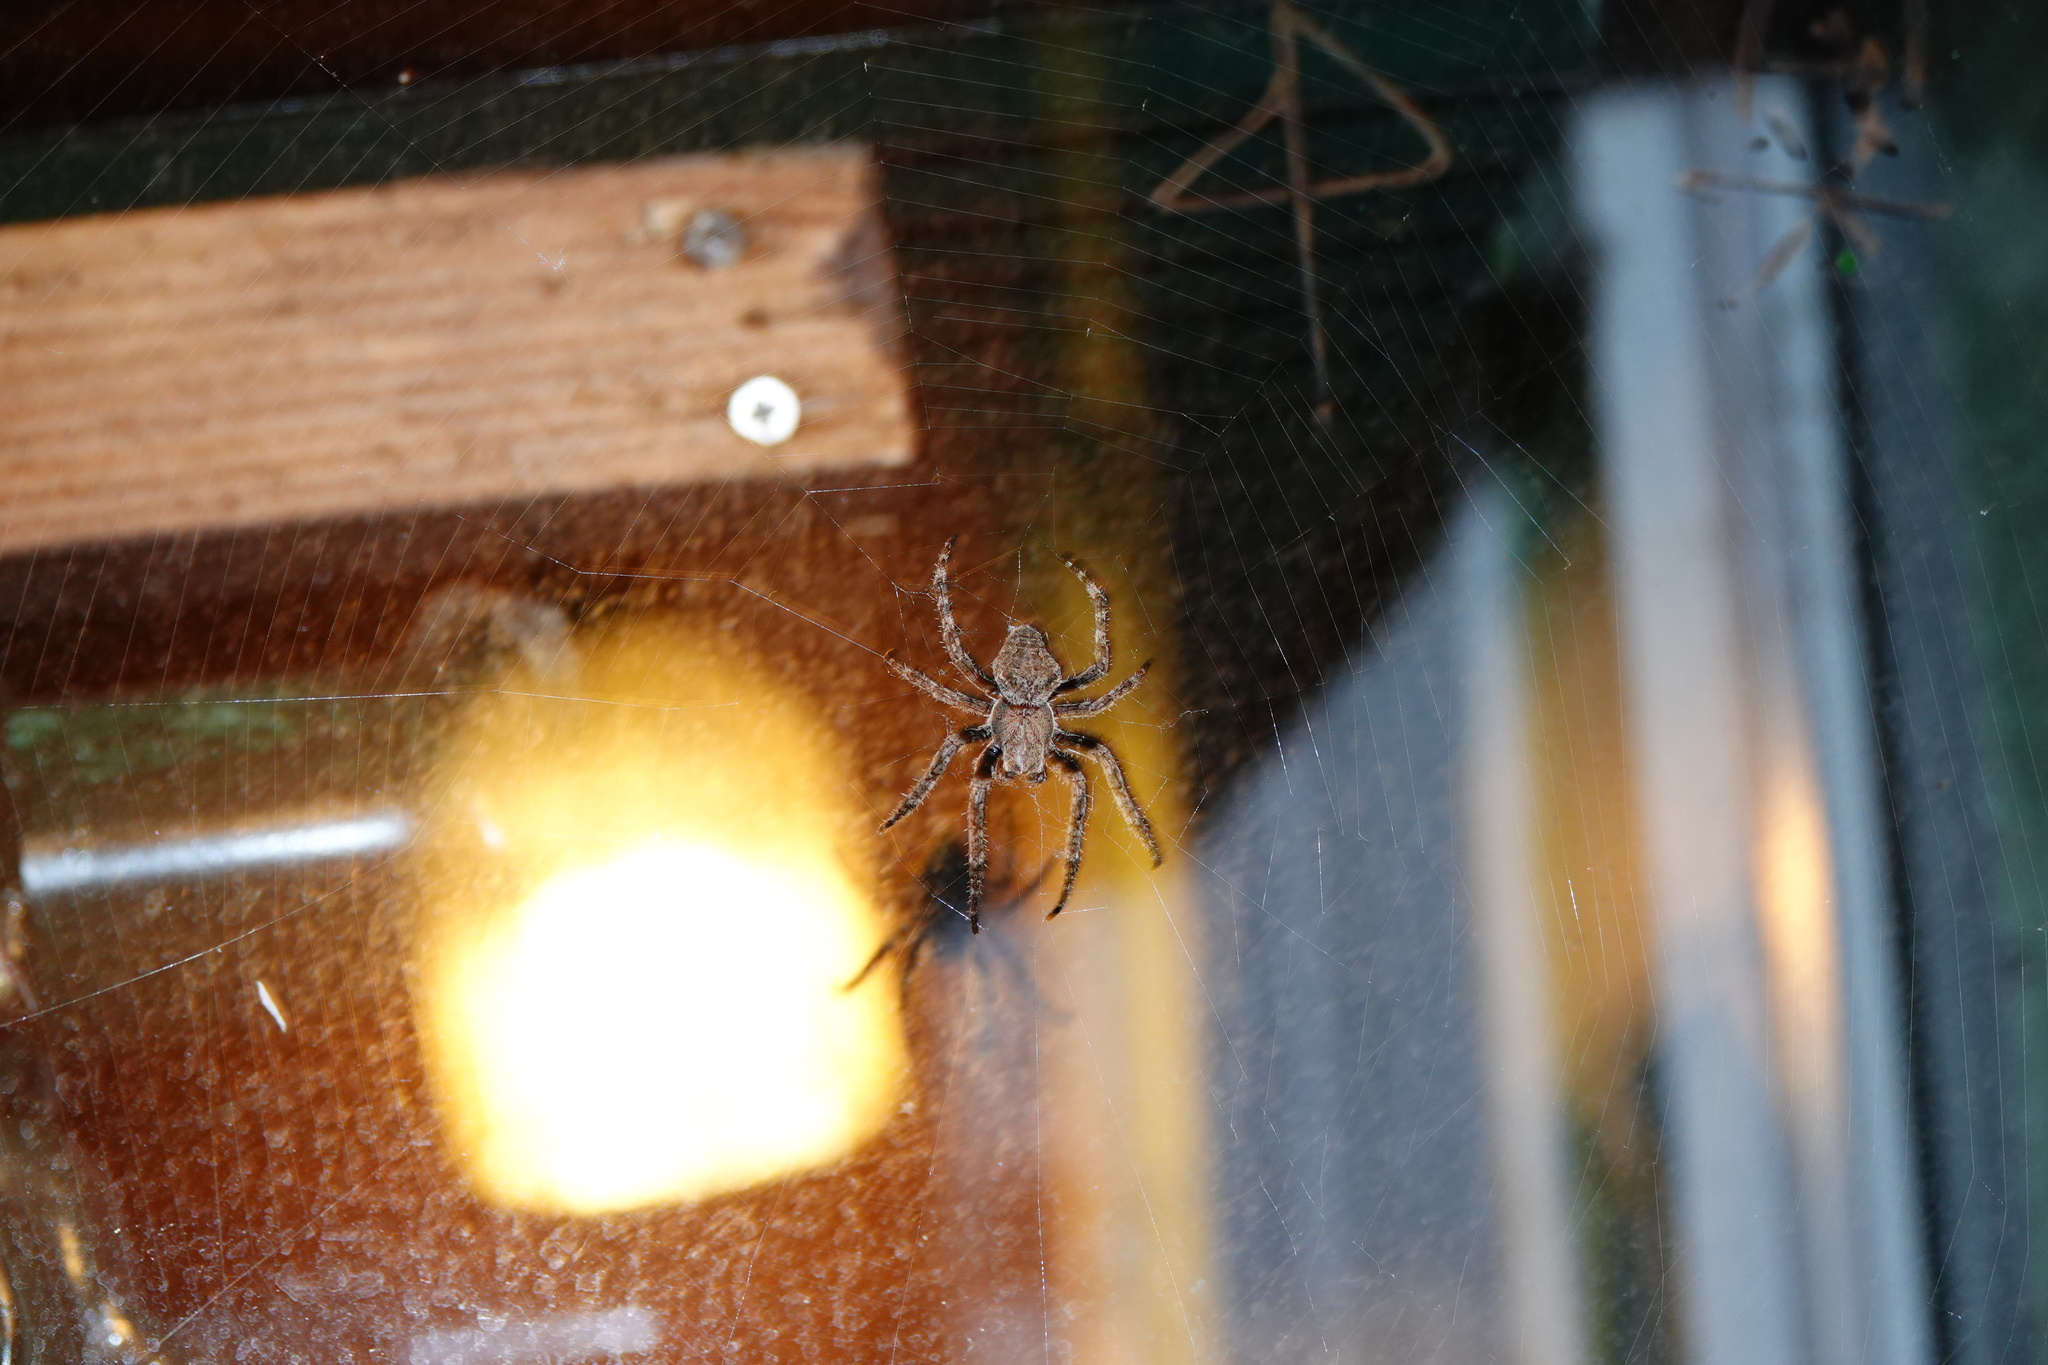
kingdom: Animalia
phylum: Arthropoda
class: Arachnida
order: Araneae
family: Araneidae
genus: Araneus
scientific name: Araneus ventricosus
